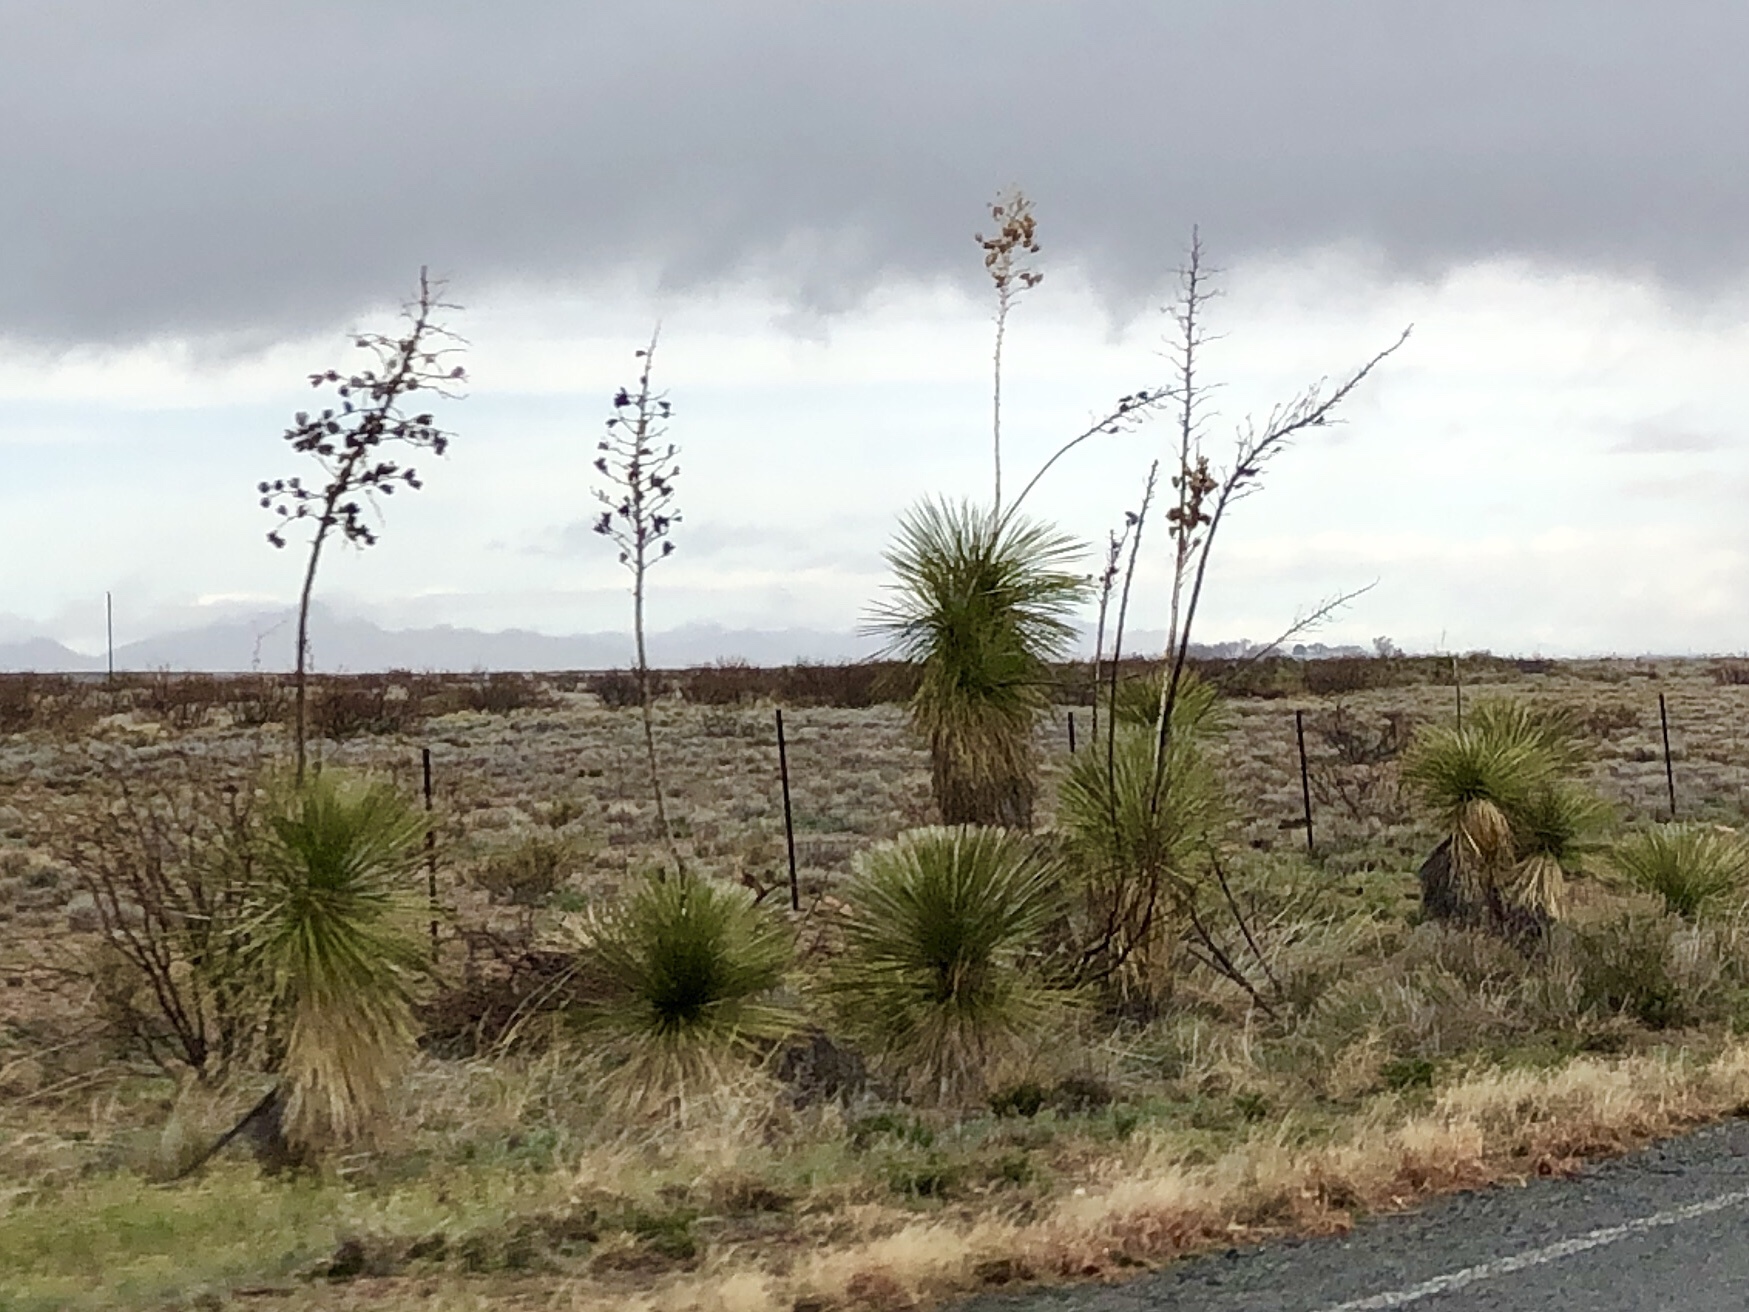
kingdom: Plantae
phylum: Tracheophyta
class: Liliopsida
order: Asparagales
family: Asparagaceae
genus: Yucca
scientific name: Yucca elata
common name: Palmella
